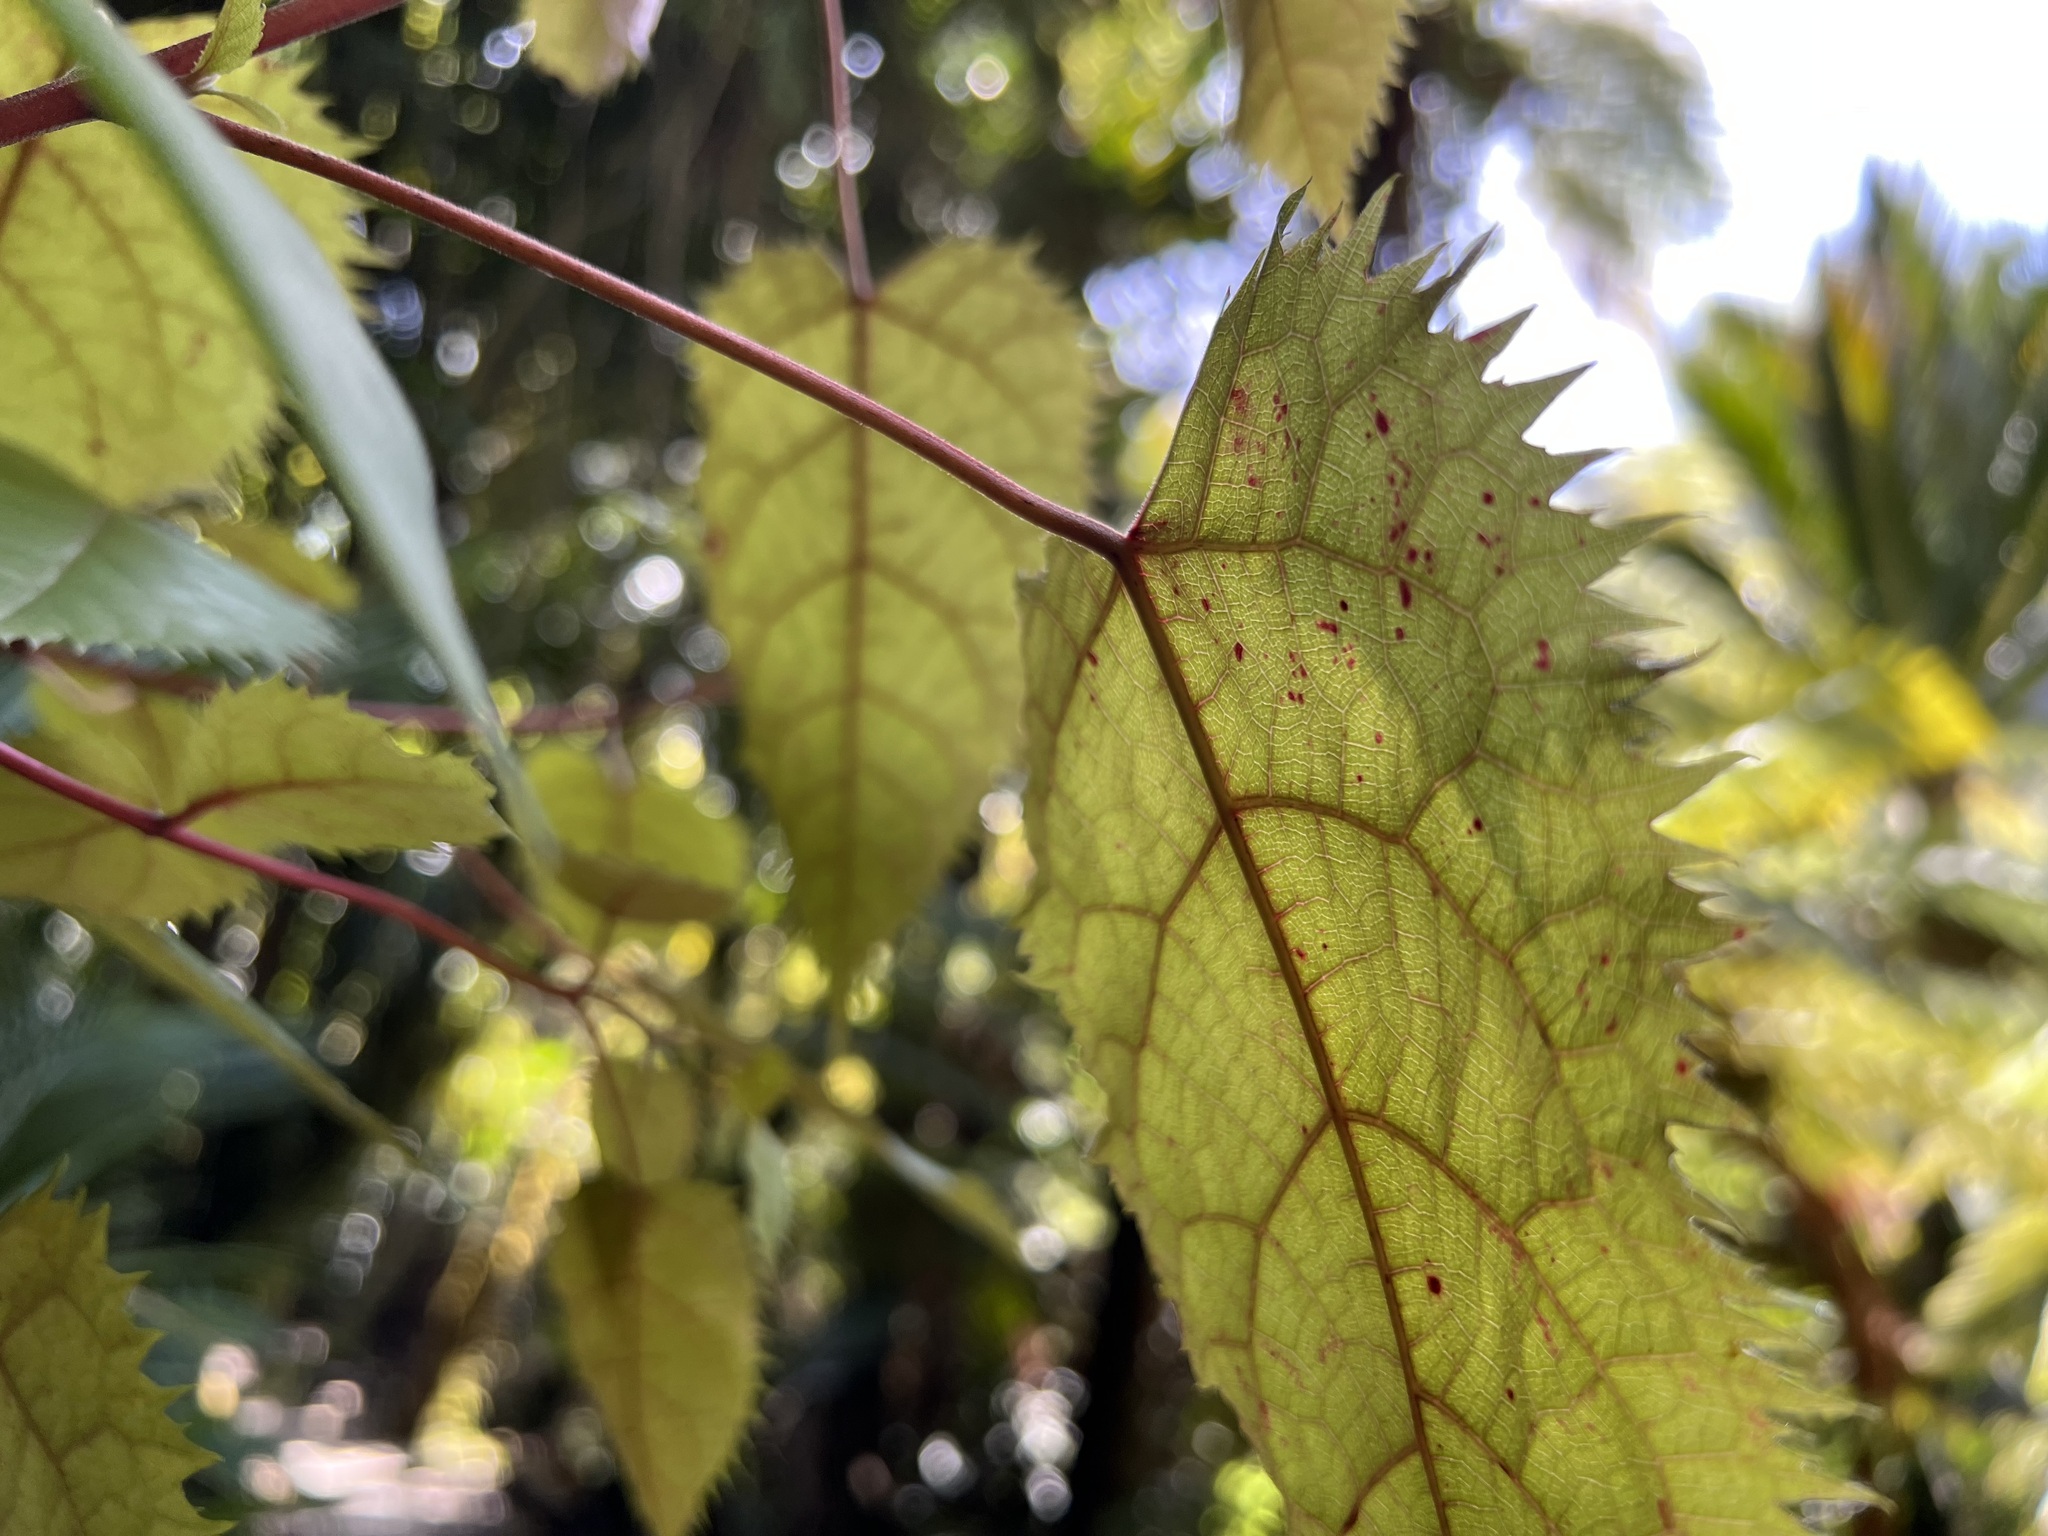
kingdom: Plantae
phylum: Tracheophyta
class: Magnoliopsida
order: Oxalidales
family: Elaeocarpaceae
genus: Aristotelia
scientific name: Aristotelia serrata
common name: New zealand wineberry
